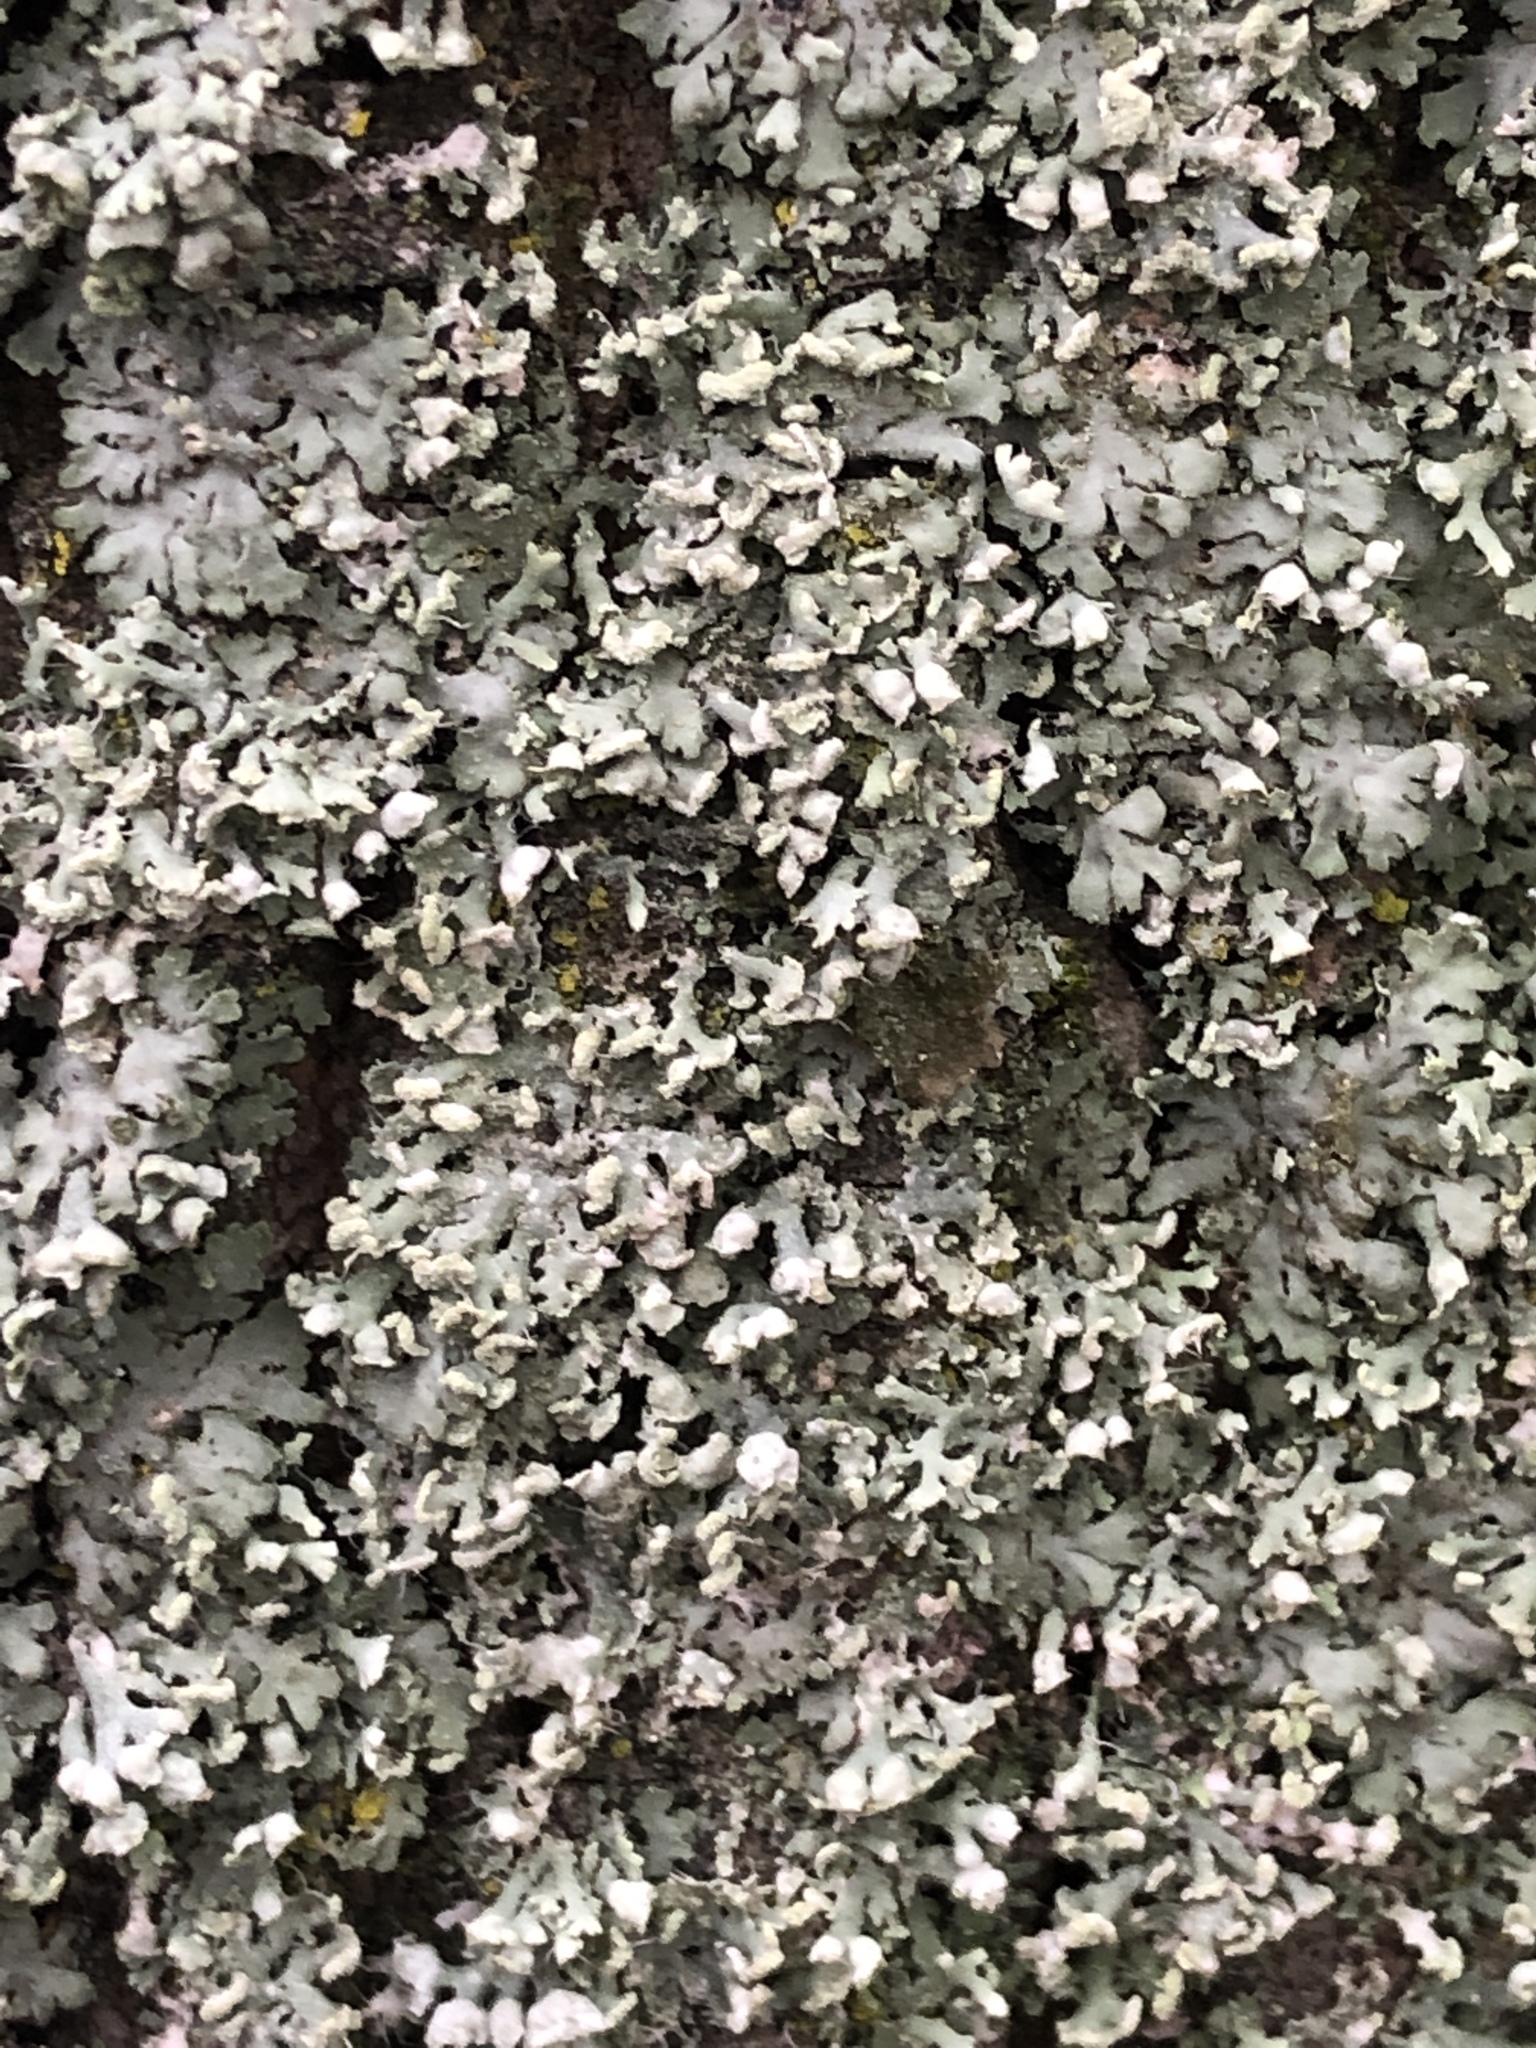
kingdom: Fungi
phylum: Ascomycota
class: Lecanoromycetes
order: Caliciales
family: Physciaceae
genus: Physcia
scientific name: Physcia adscendens
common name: Hooded rosette lichen
